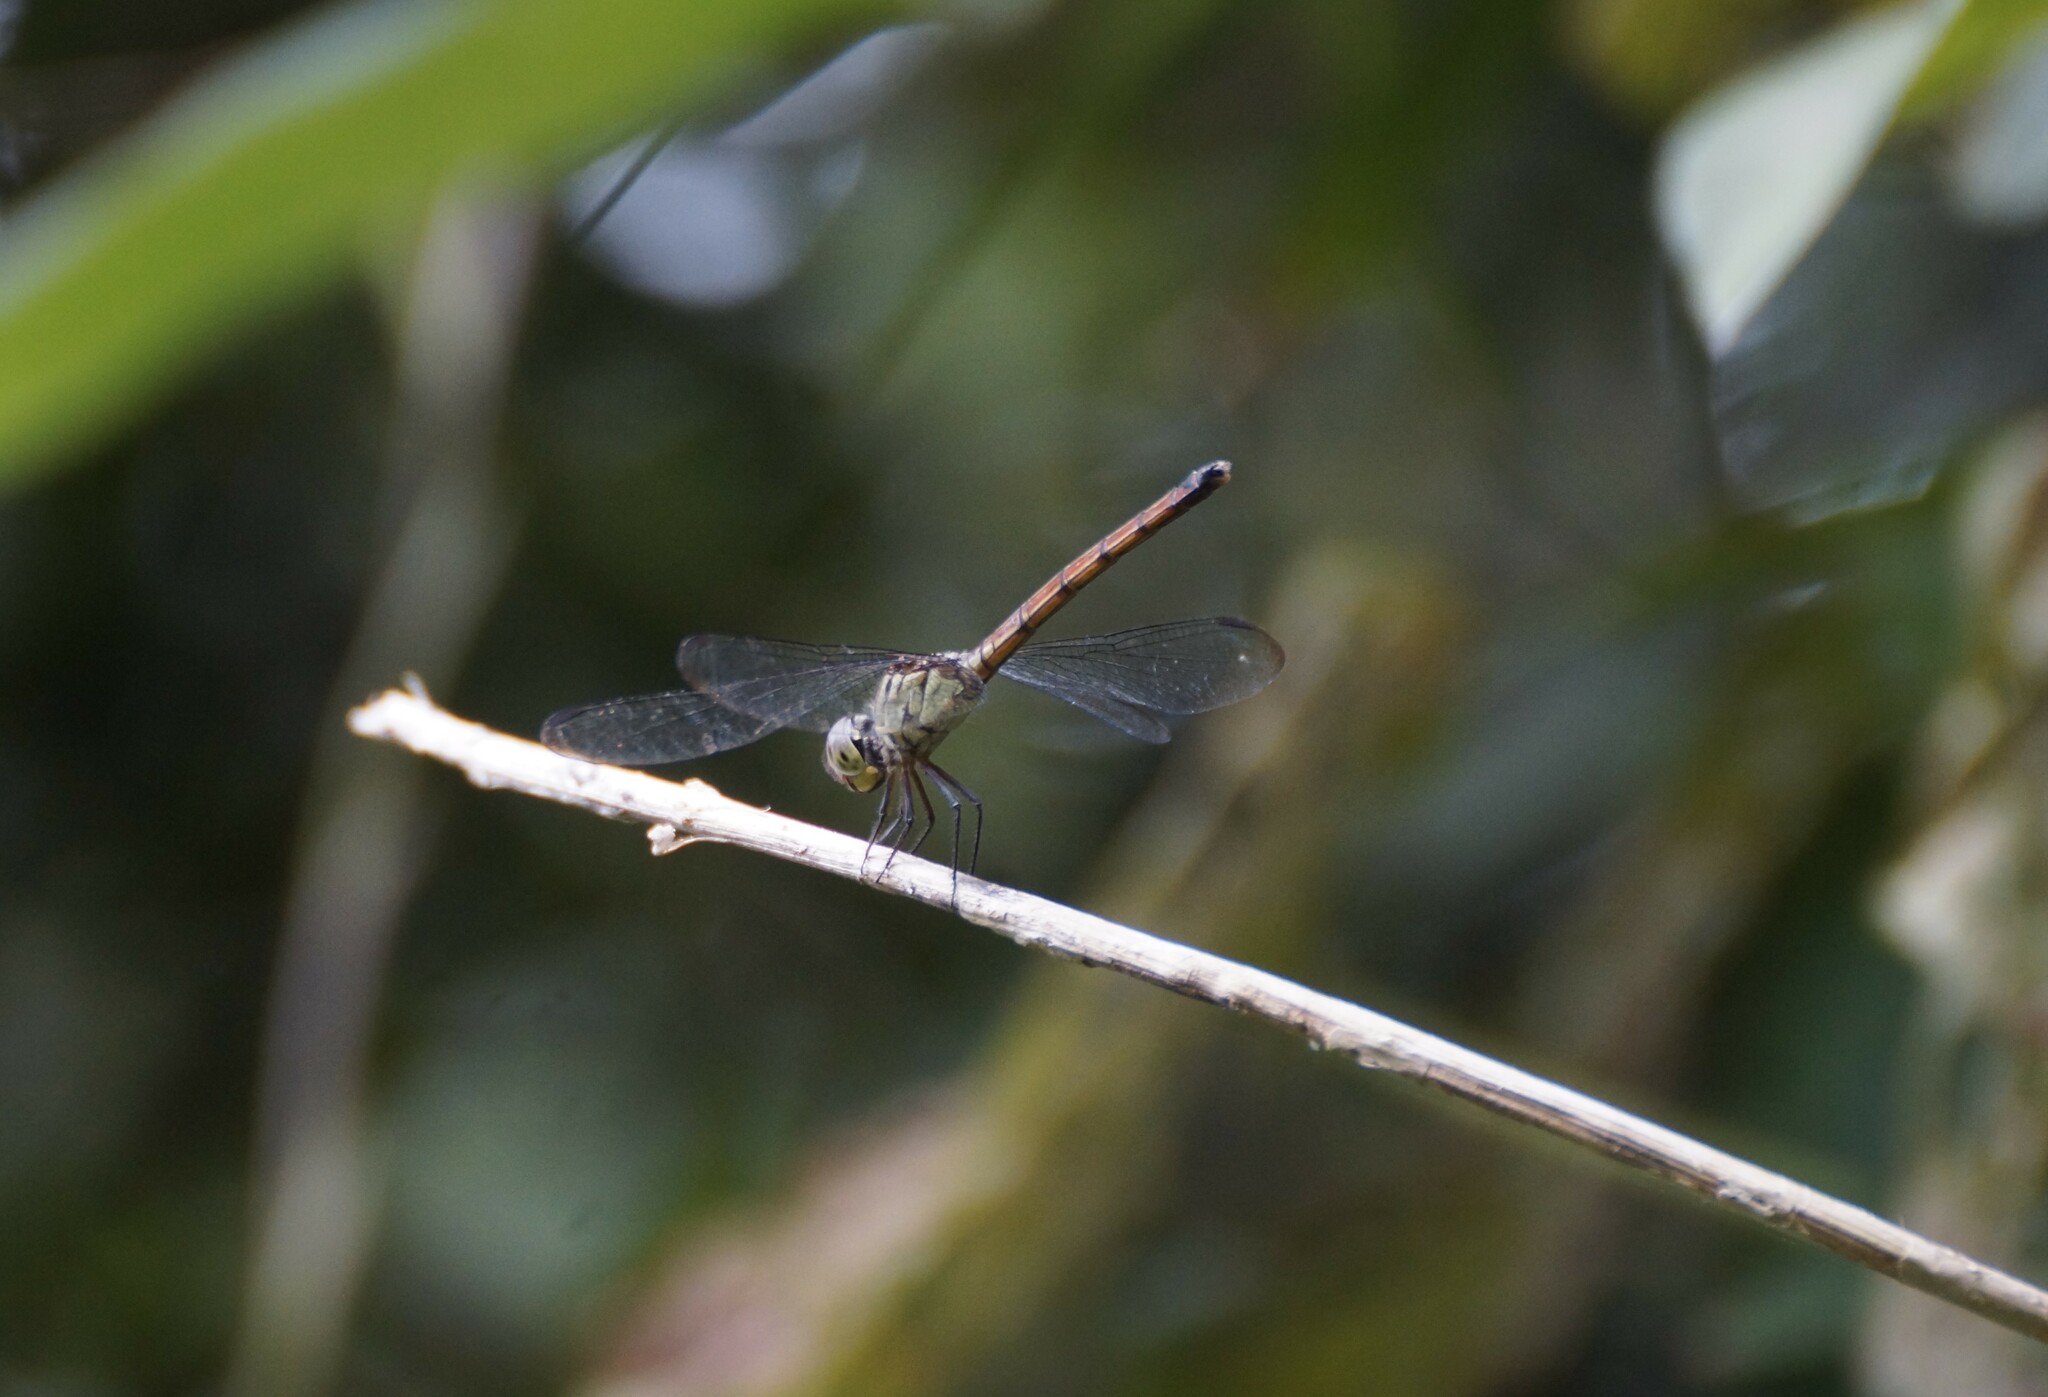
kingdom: Animalia
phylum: Arthropoda
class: Insecta
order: Odonata
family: Libellulidae
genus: Lathrecista
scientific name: Lathrecista asiatica
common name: Scarlet grenadier
